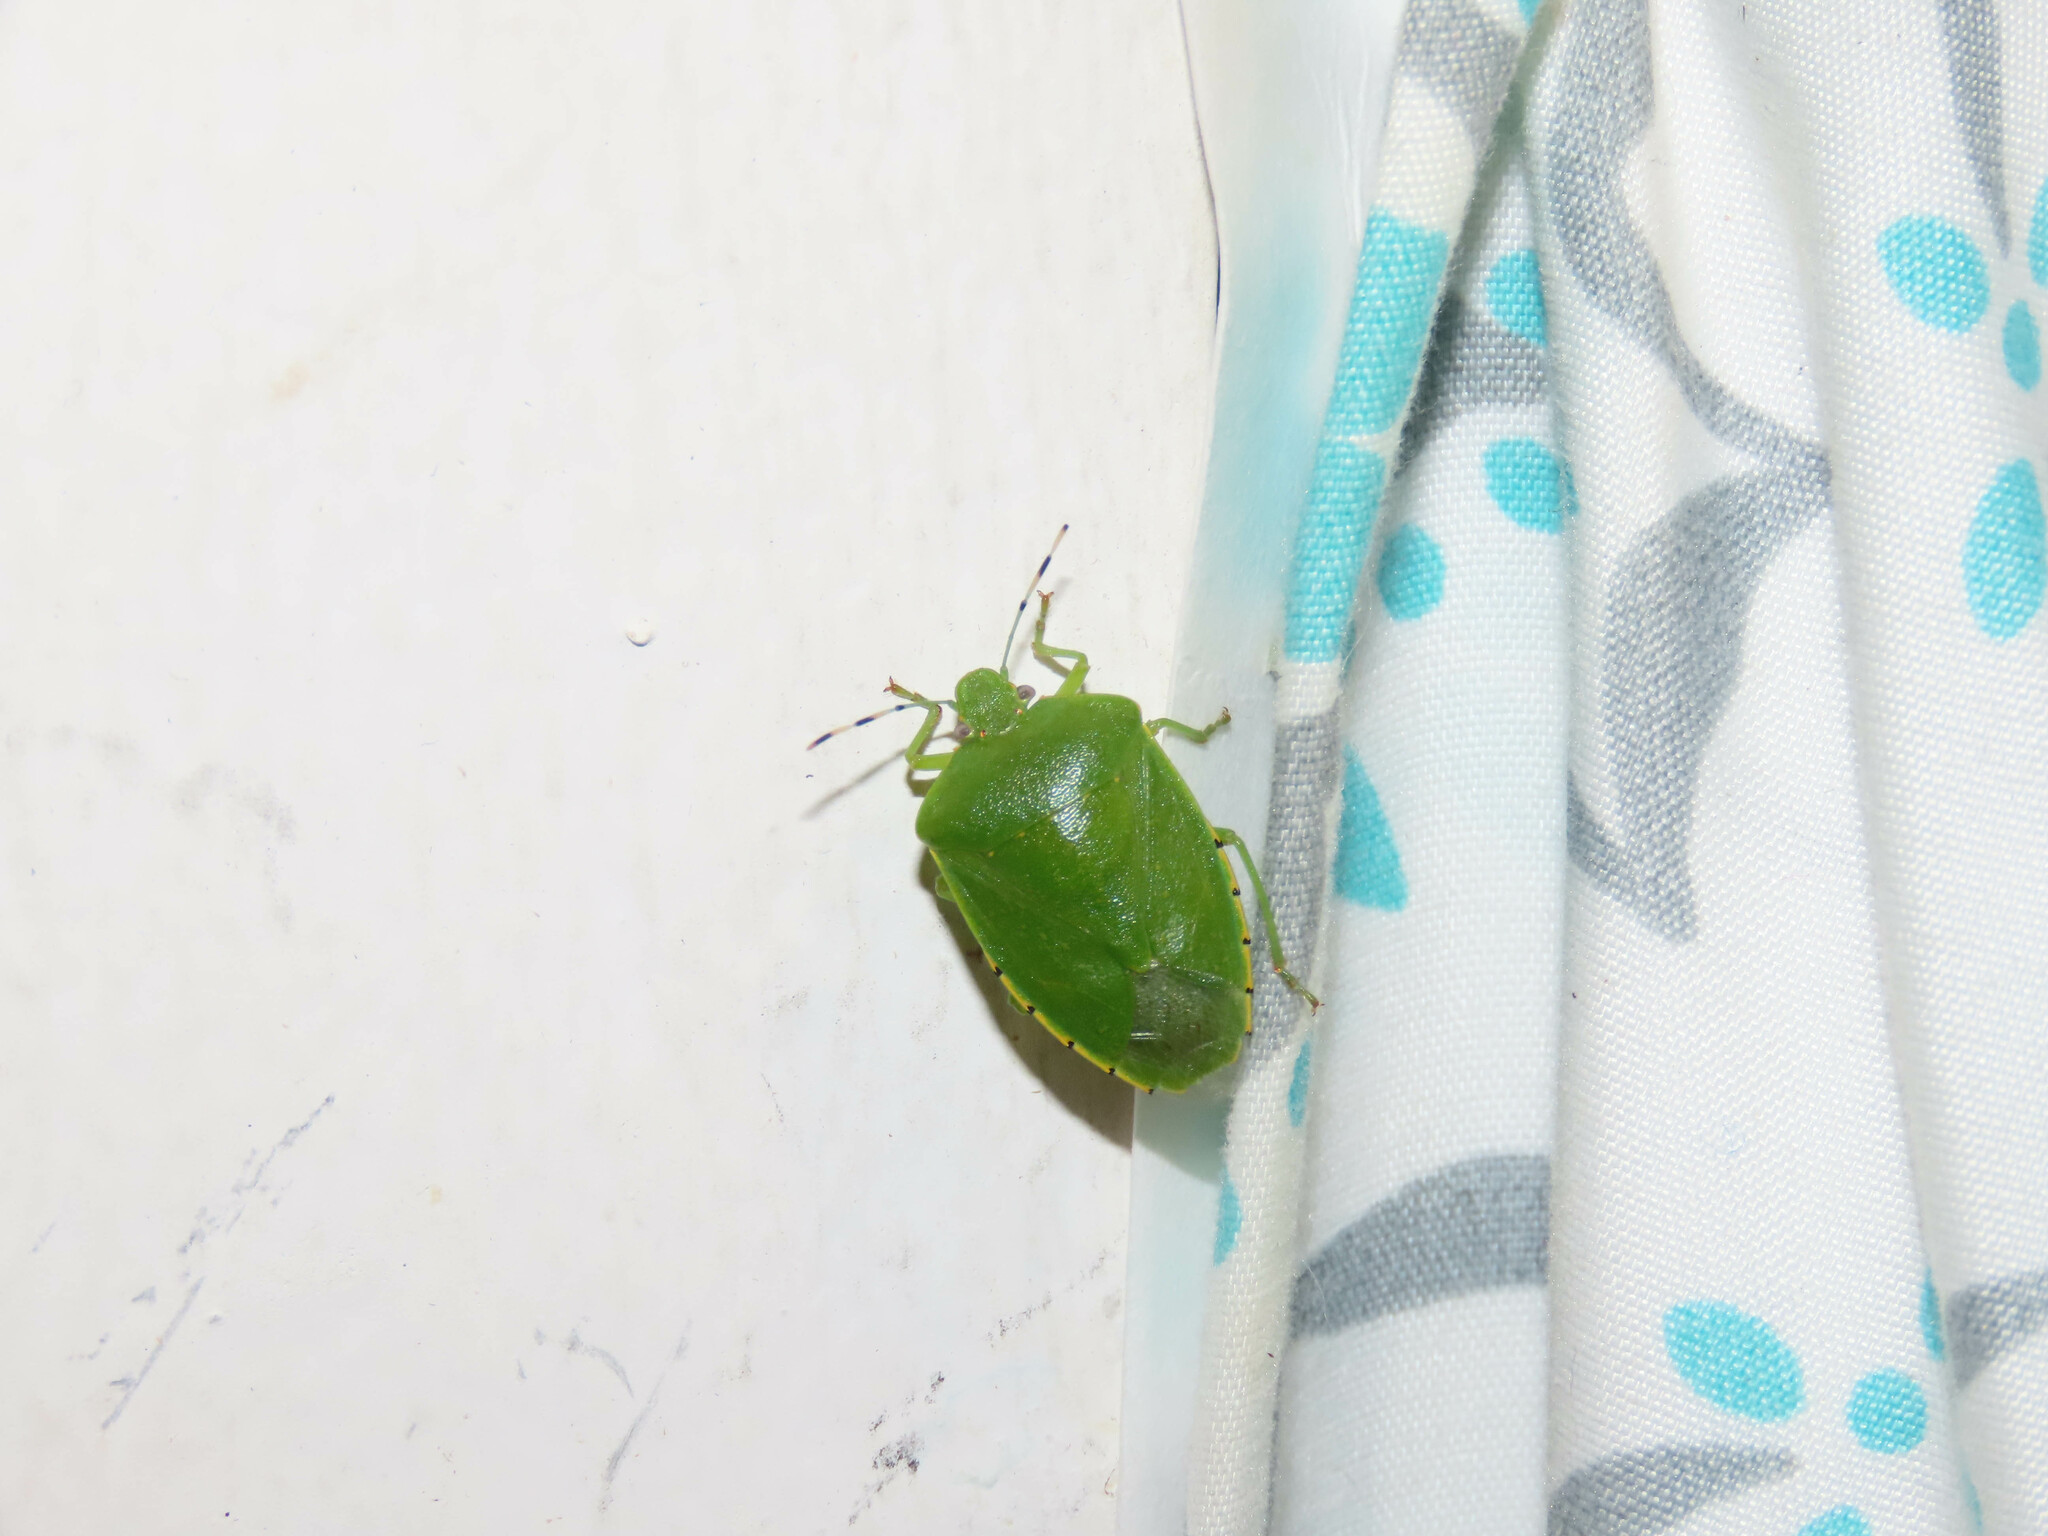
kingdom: Animalia
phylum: Arthropoda
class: Insecta
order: Hemiptera
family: Pentatomidae
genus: Chinavia
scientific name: Chinavia hilaris
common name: Green stink bug
